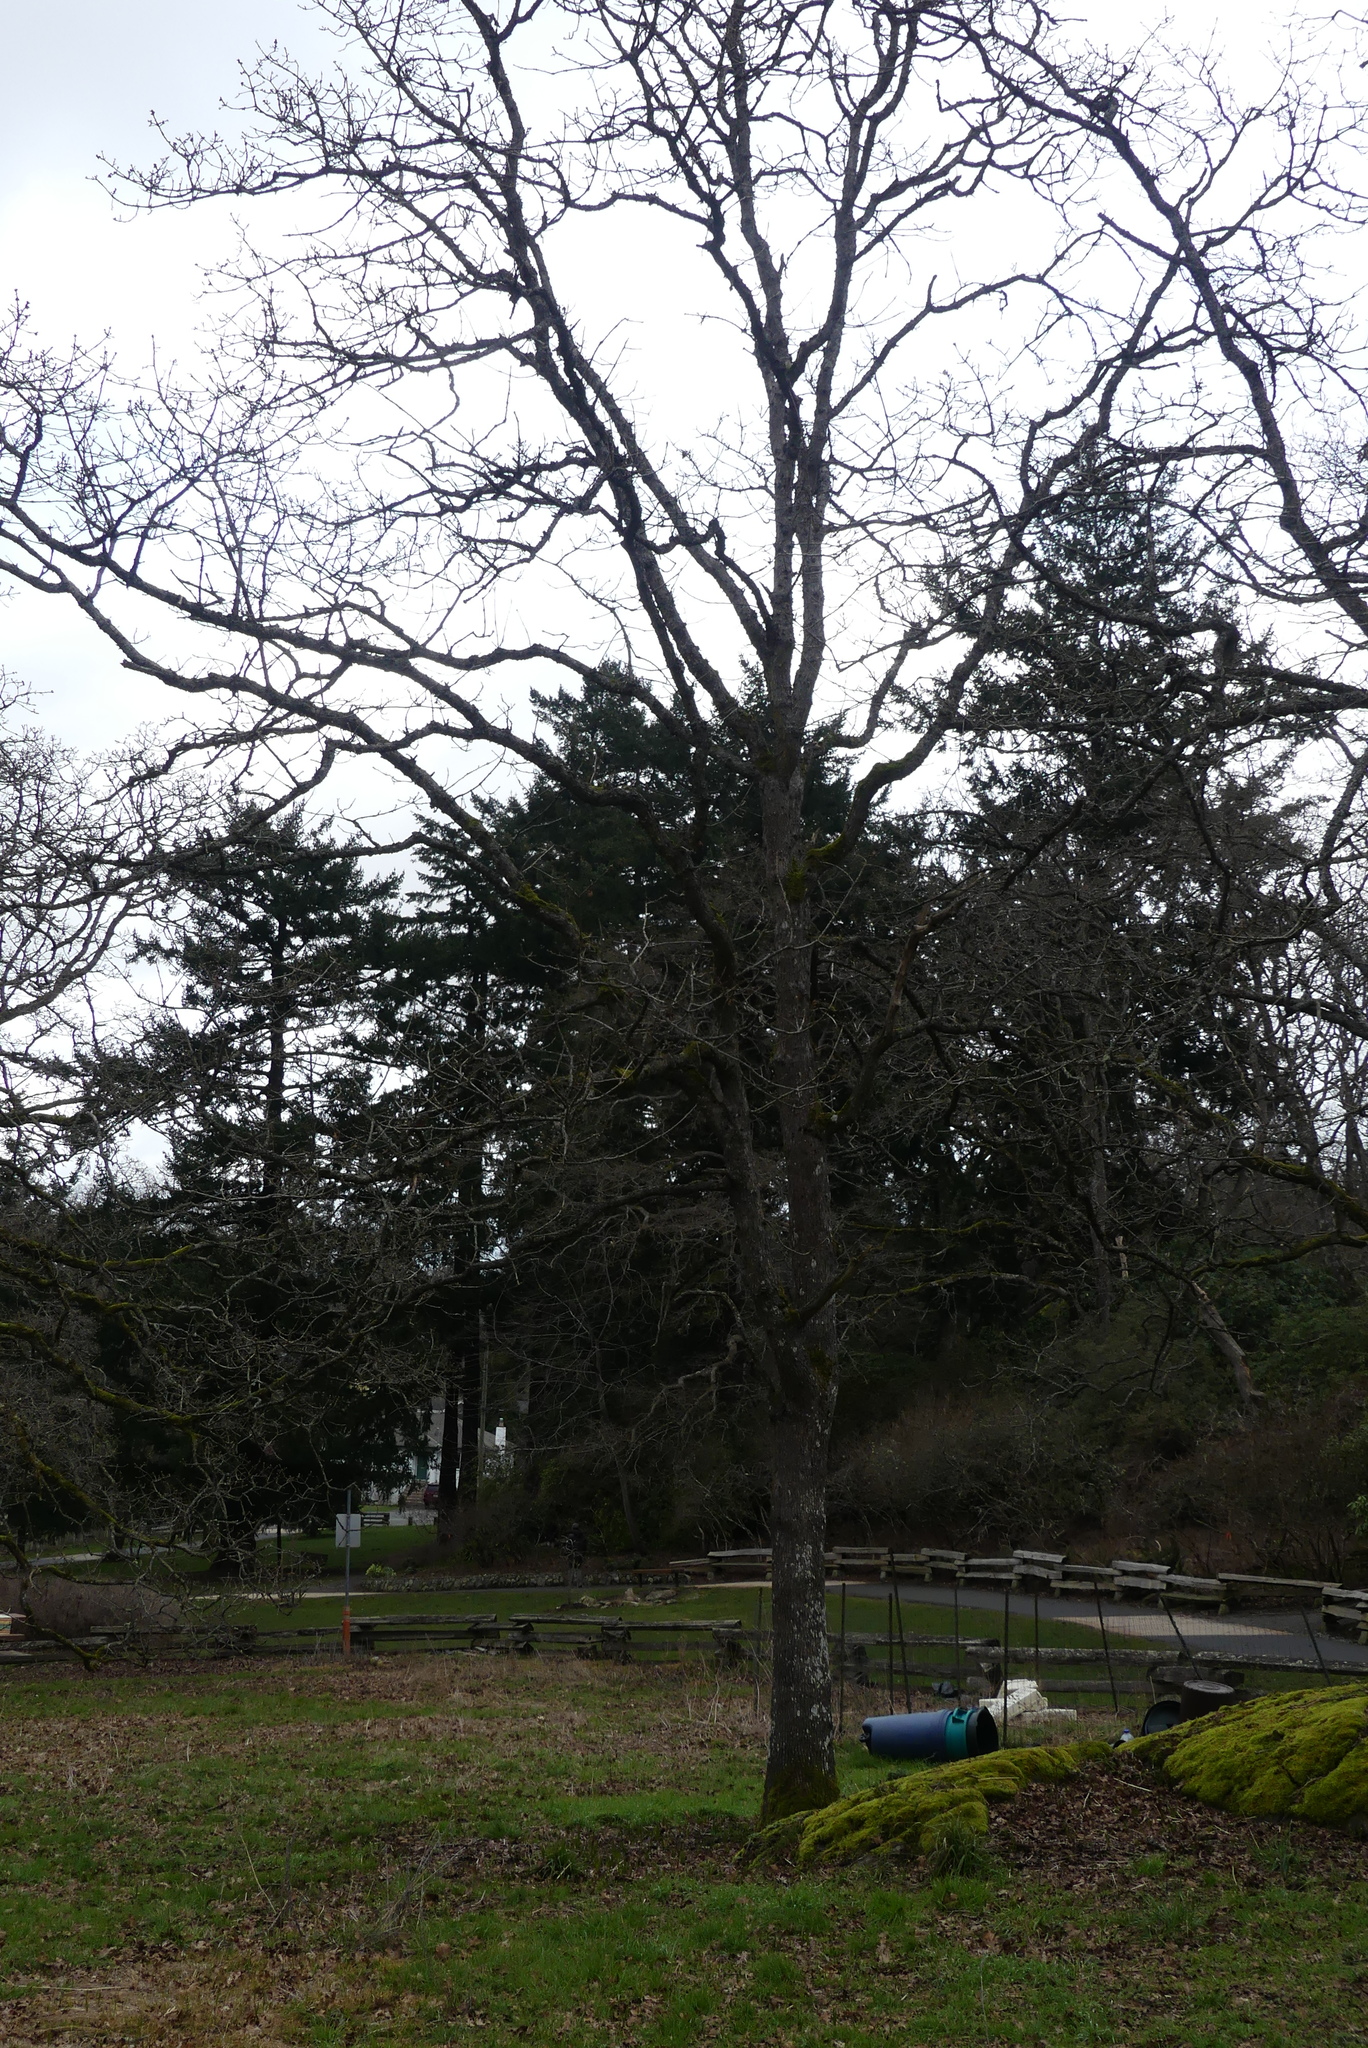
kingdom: Plantae
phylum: Tracheophyta
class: Magnoliopsida
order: Fagales
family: Fagaceae
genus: Quercus
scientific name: Quercus garryana
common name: Garry oak
